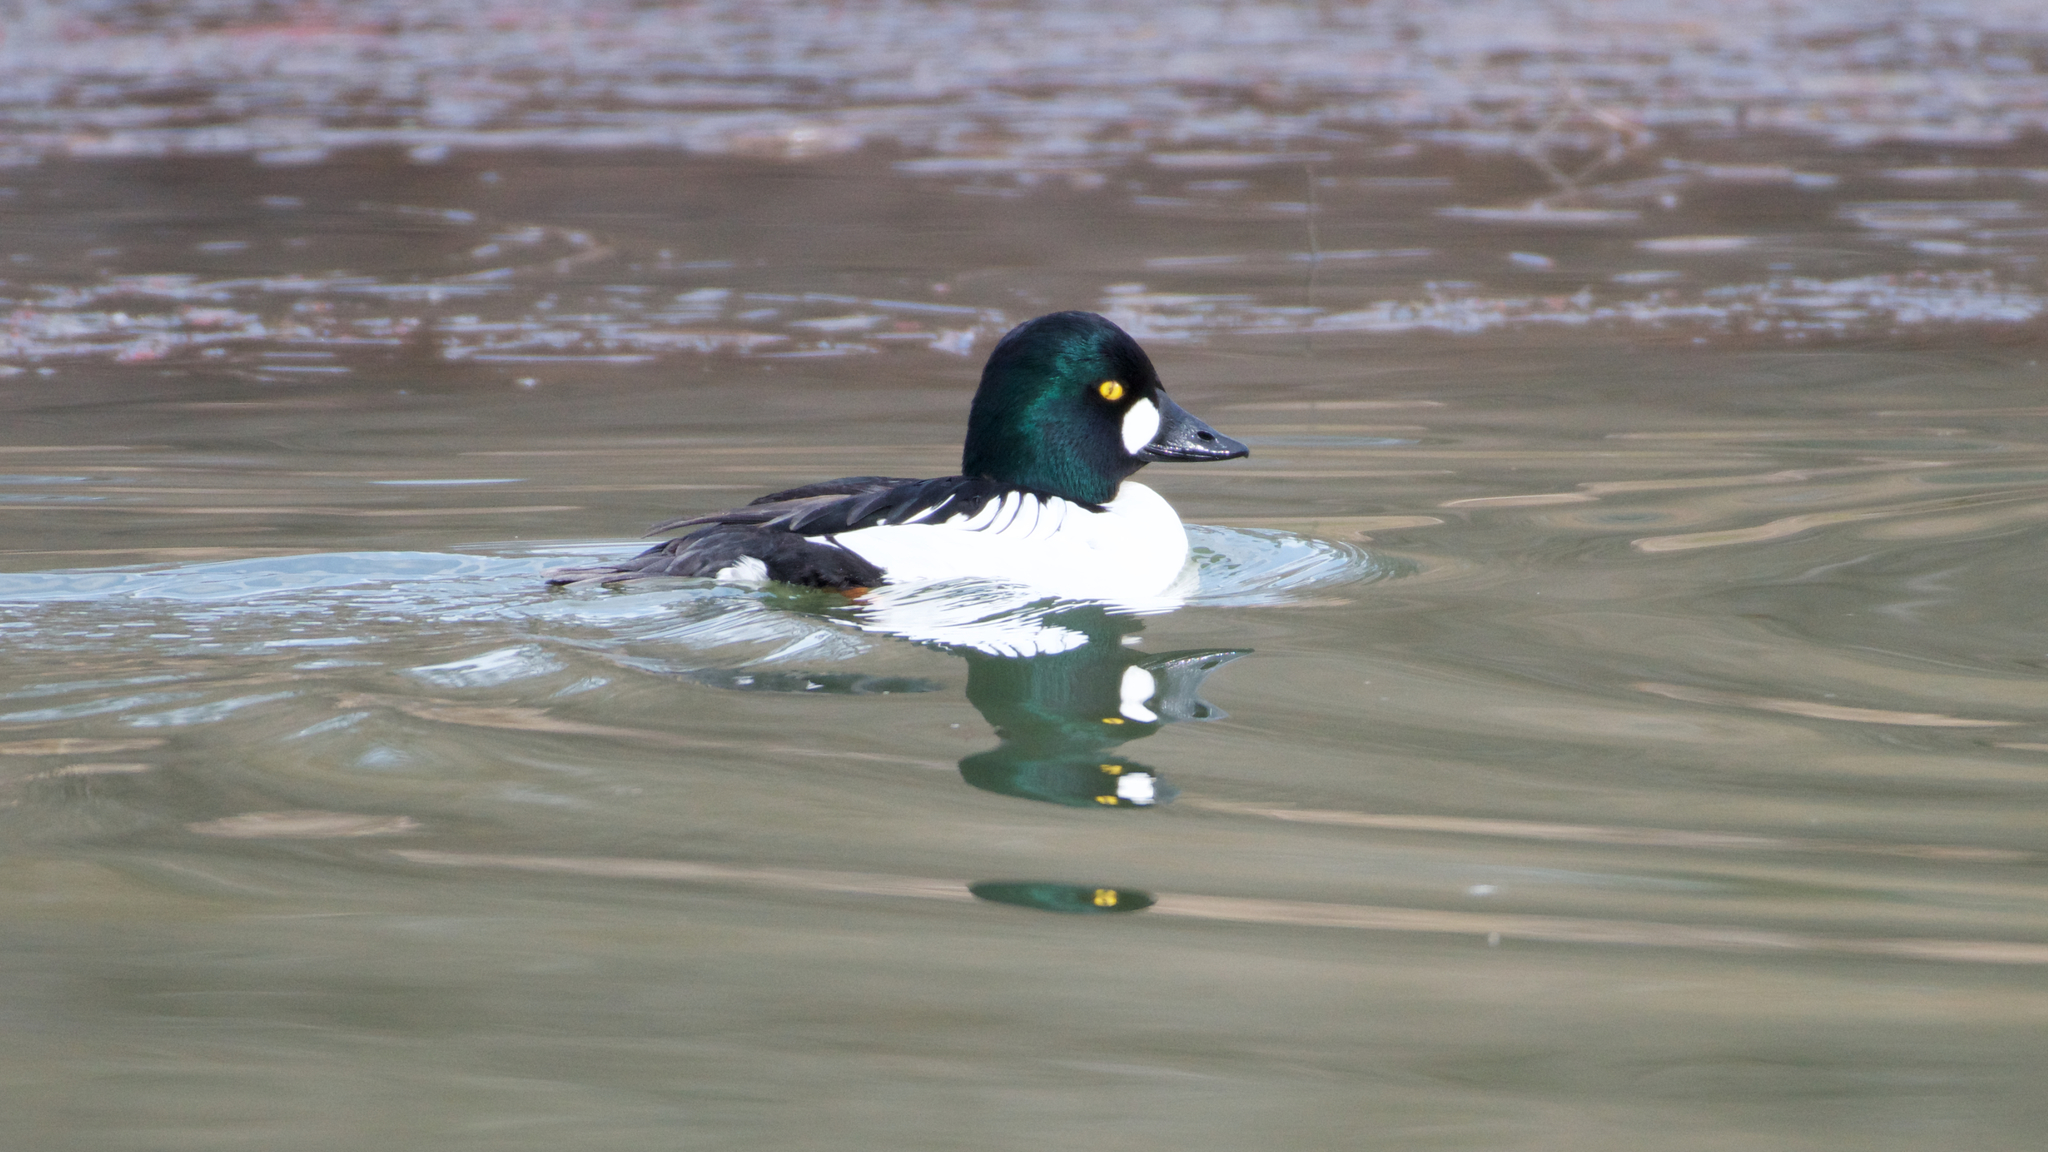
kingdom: Animalia
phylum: Chordata
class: Aves
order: Anseriformes
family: Anatidae
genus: Bucephala
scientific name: Bucephala clangula
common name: Common goldeneye
